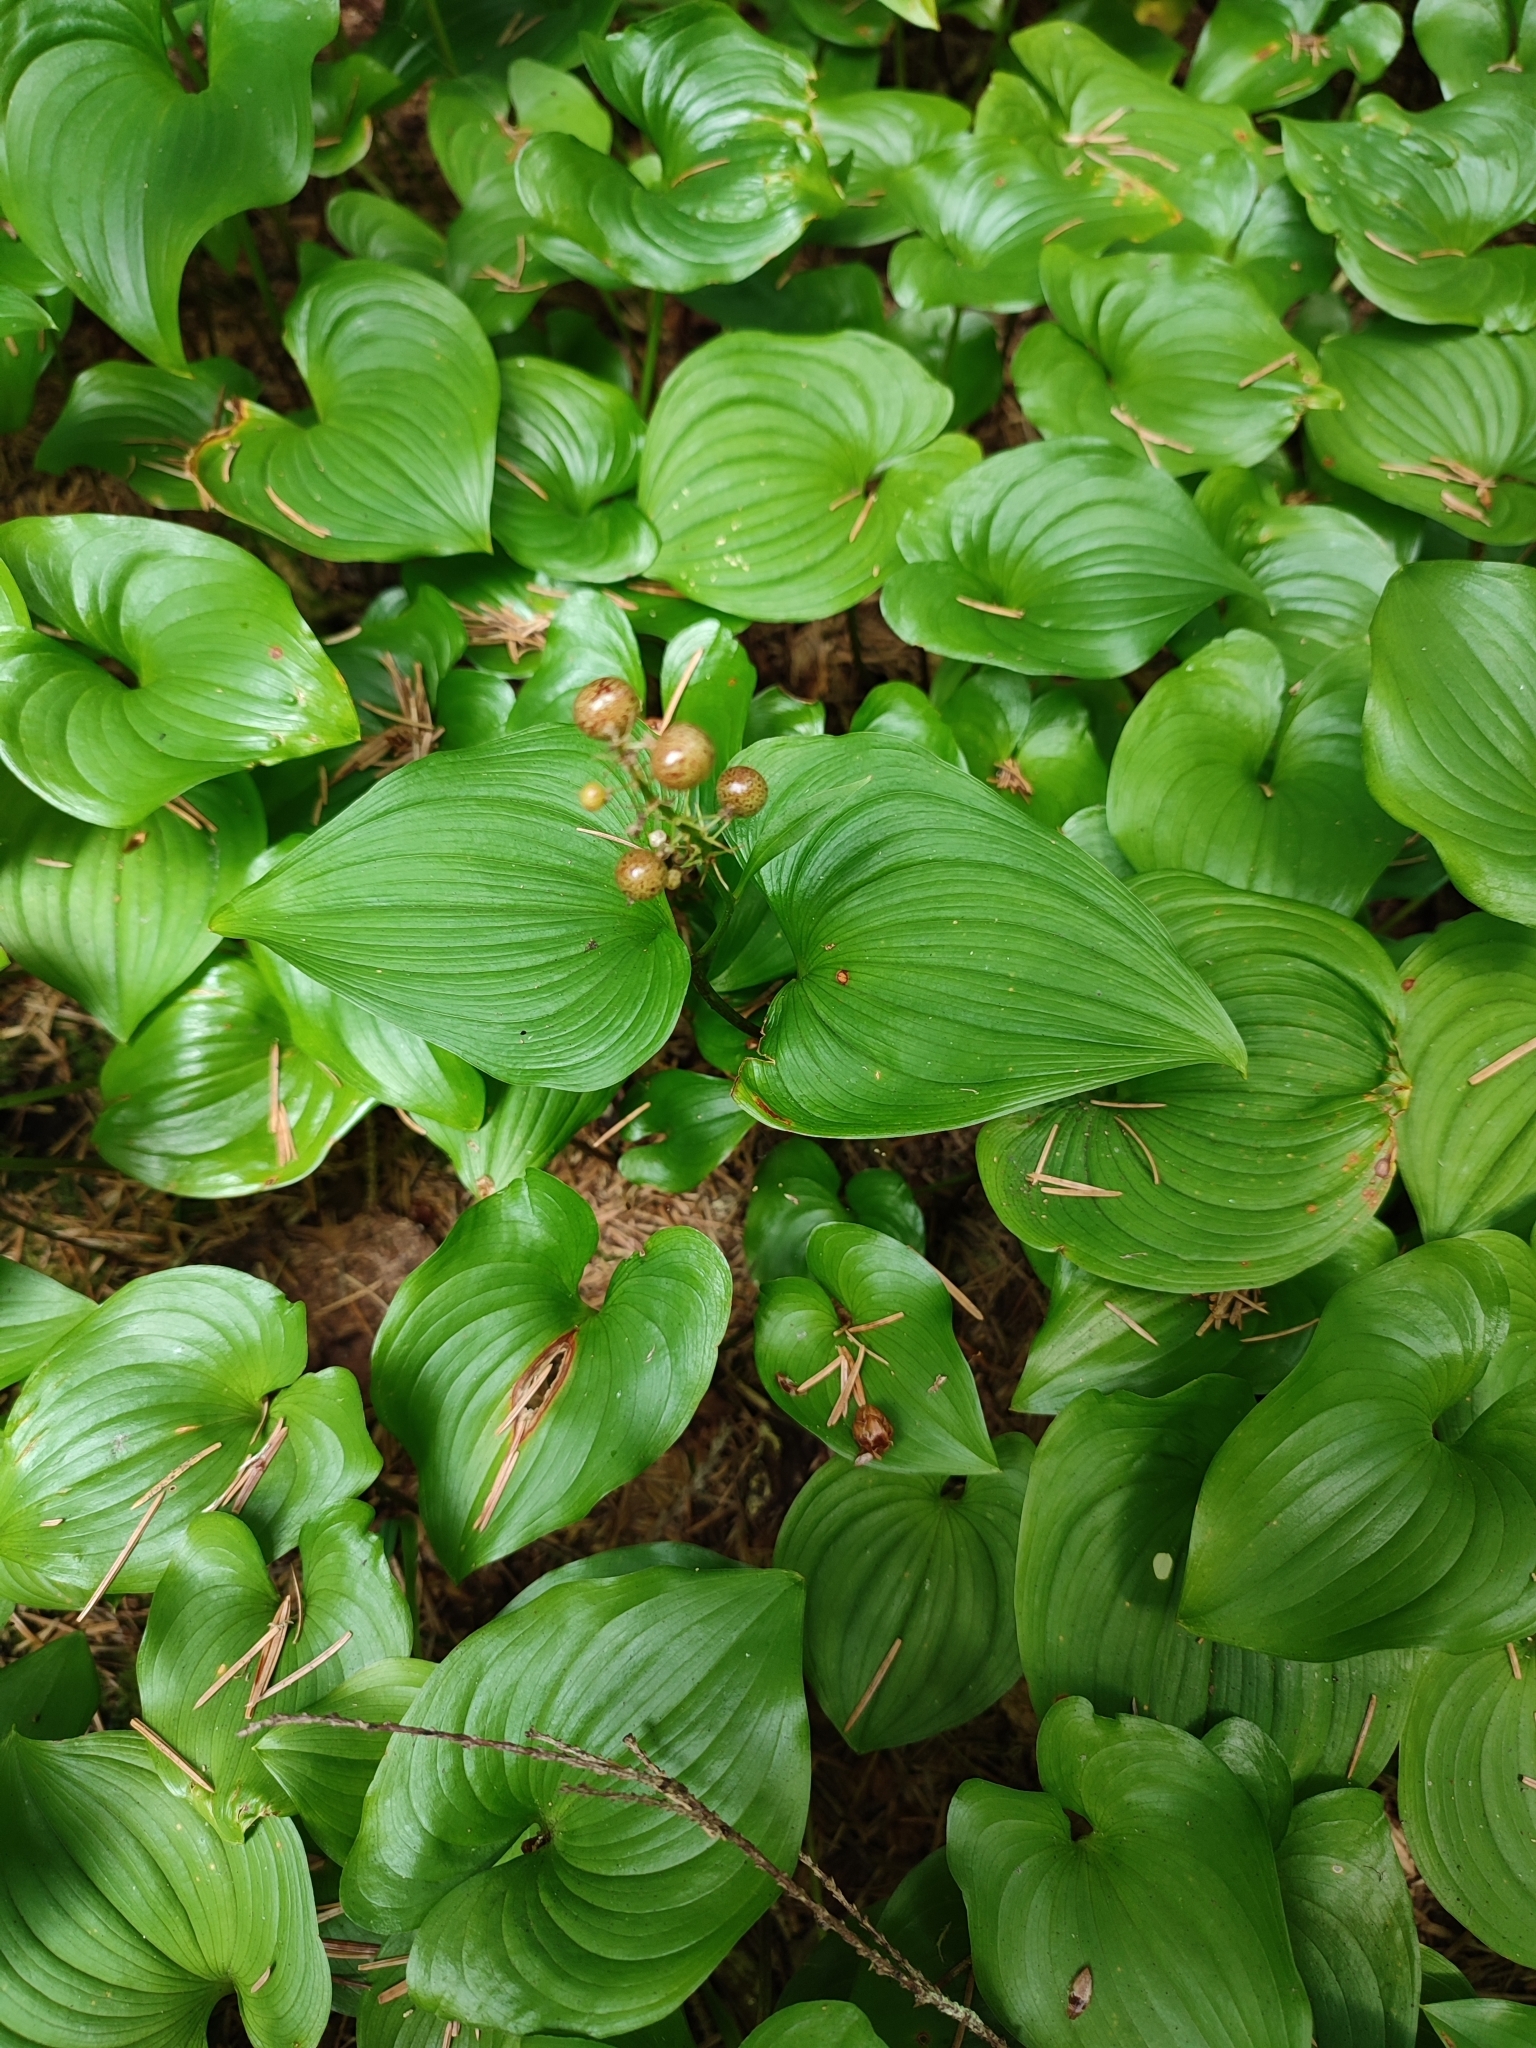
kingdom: Plantae
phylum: Tracheophyta
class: Liliopsida
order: Asparagales
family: Asparagaceae
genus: Maianthemum
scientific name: Maianthemum dilatatum
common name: False lily-of-the-valley
